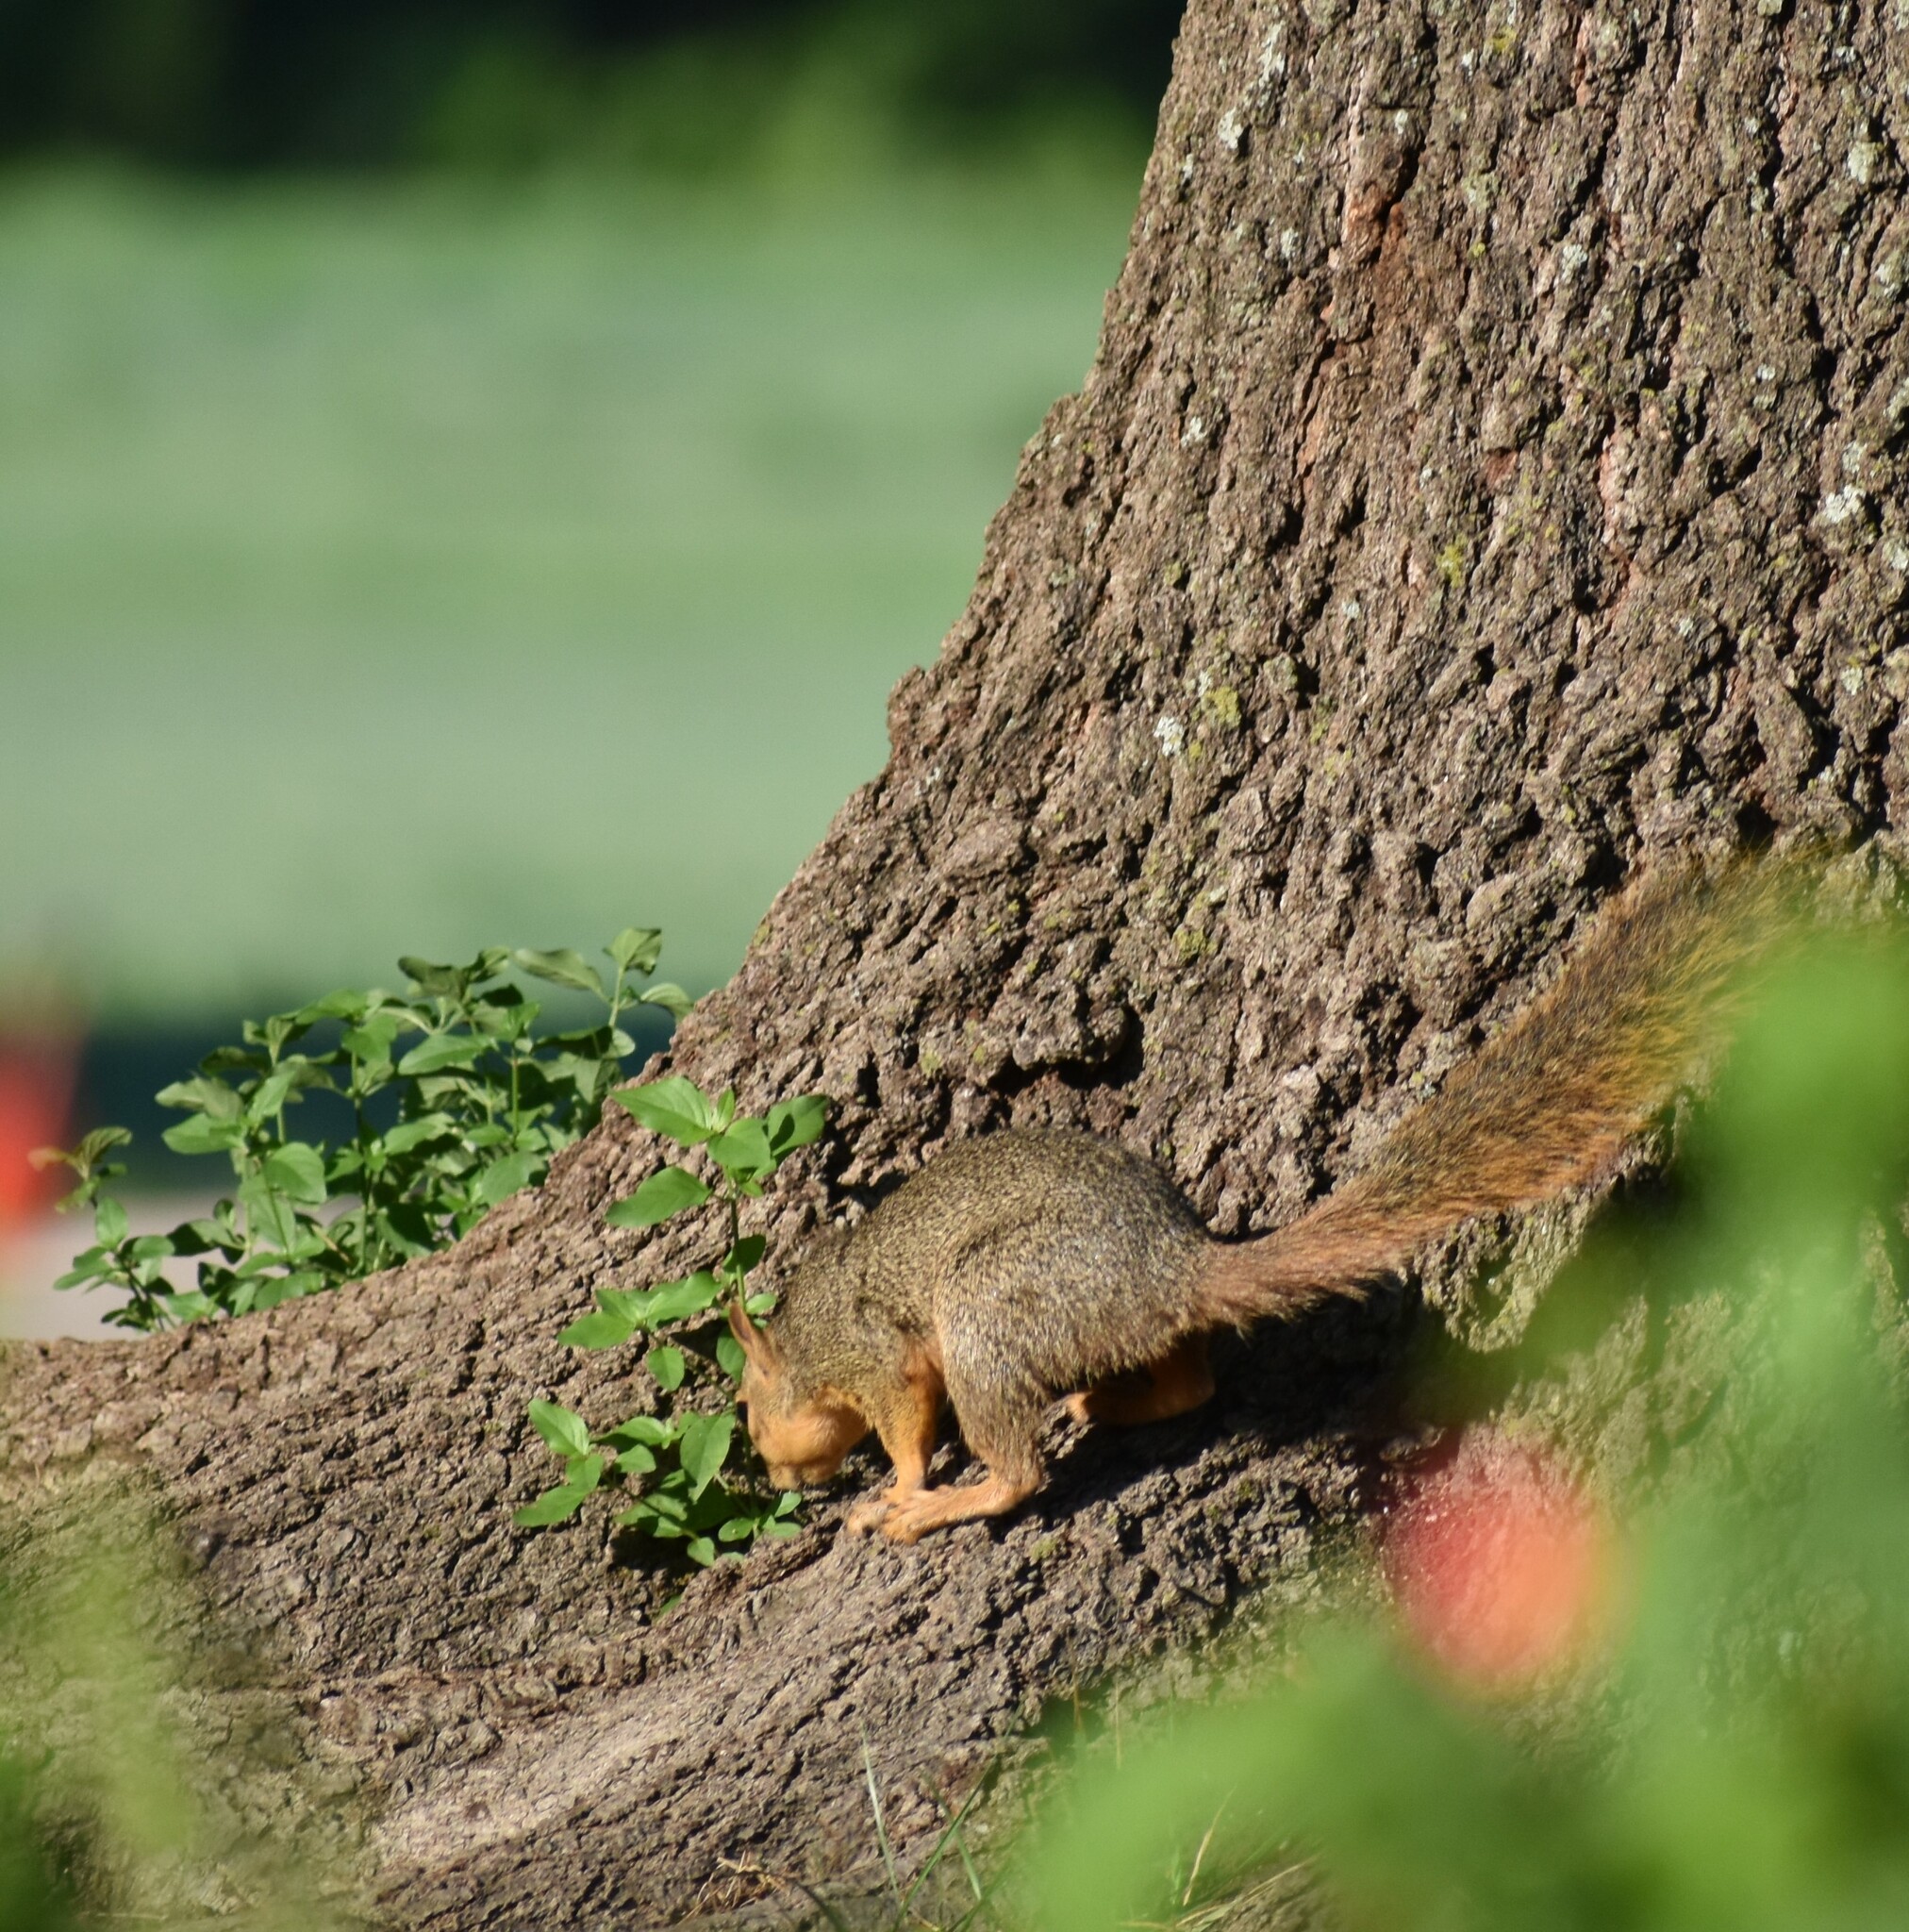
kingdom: Animalia
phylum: Chordata
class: Mammalia
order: Rodentia
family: Sciuridae
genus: Sciurus
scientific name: Sciurus niger
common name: Fox squirrel
